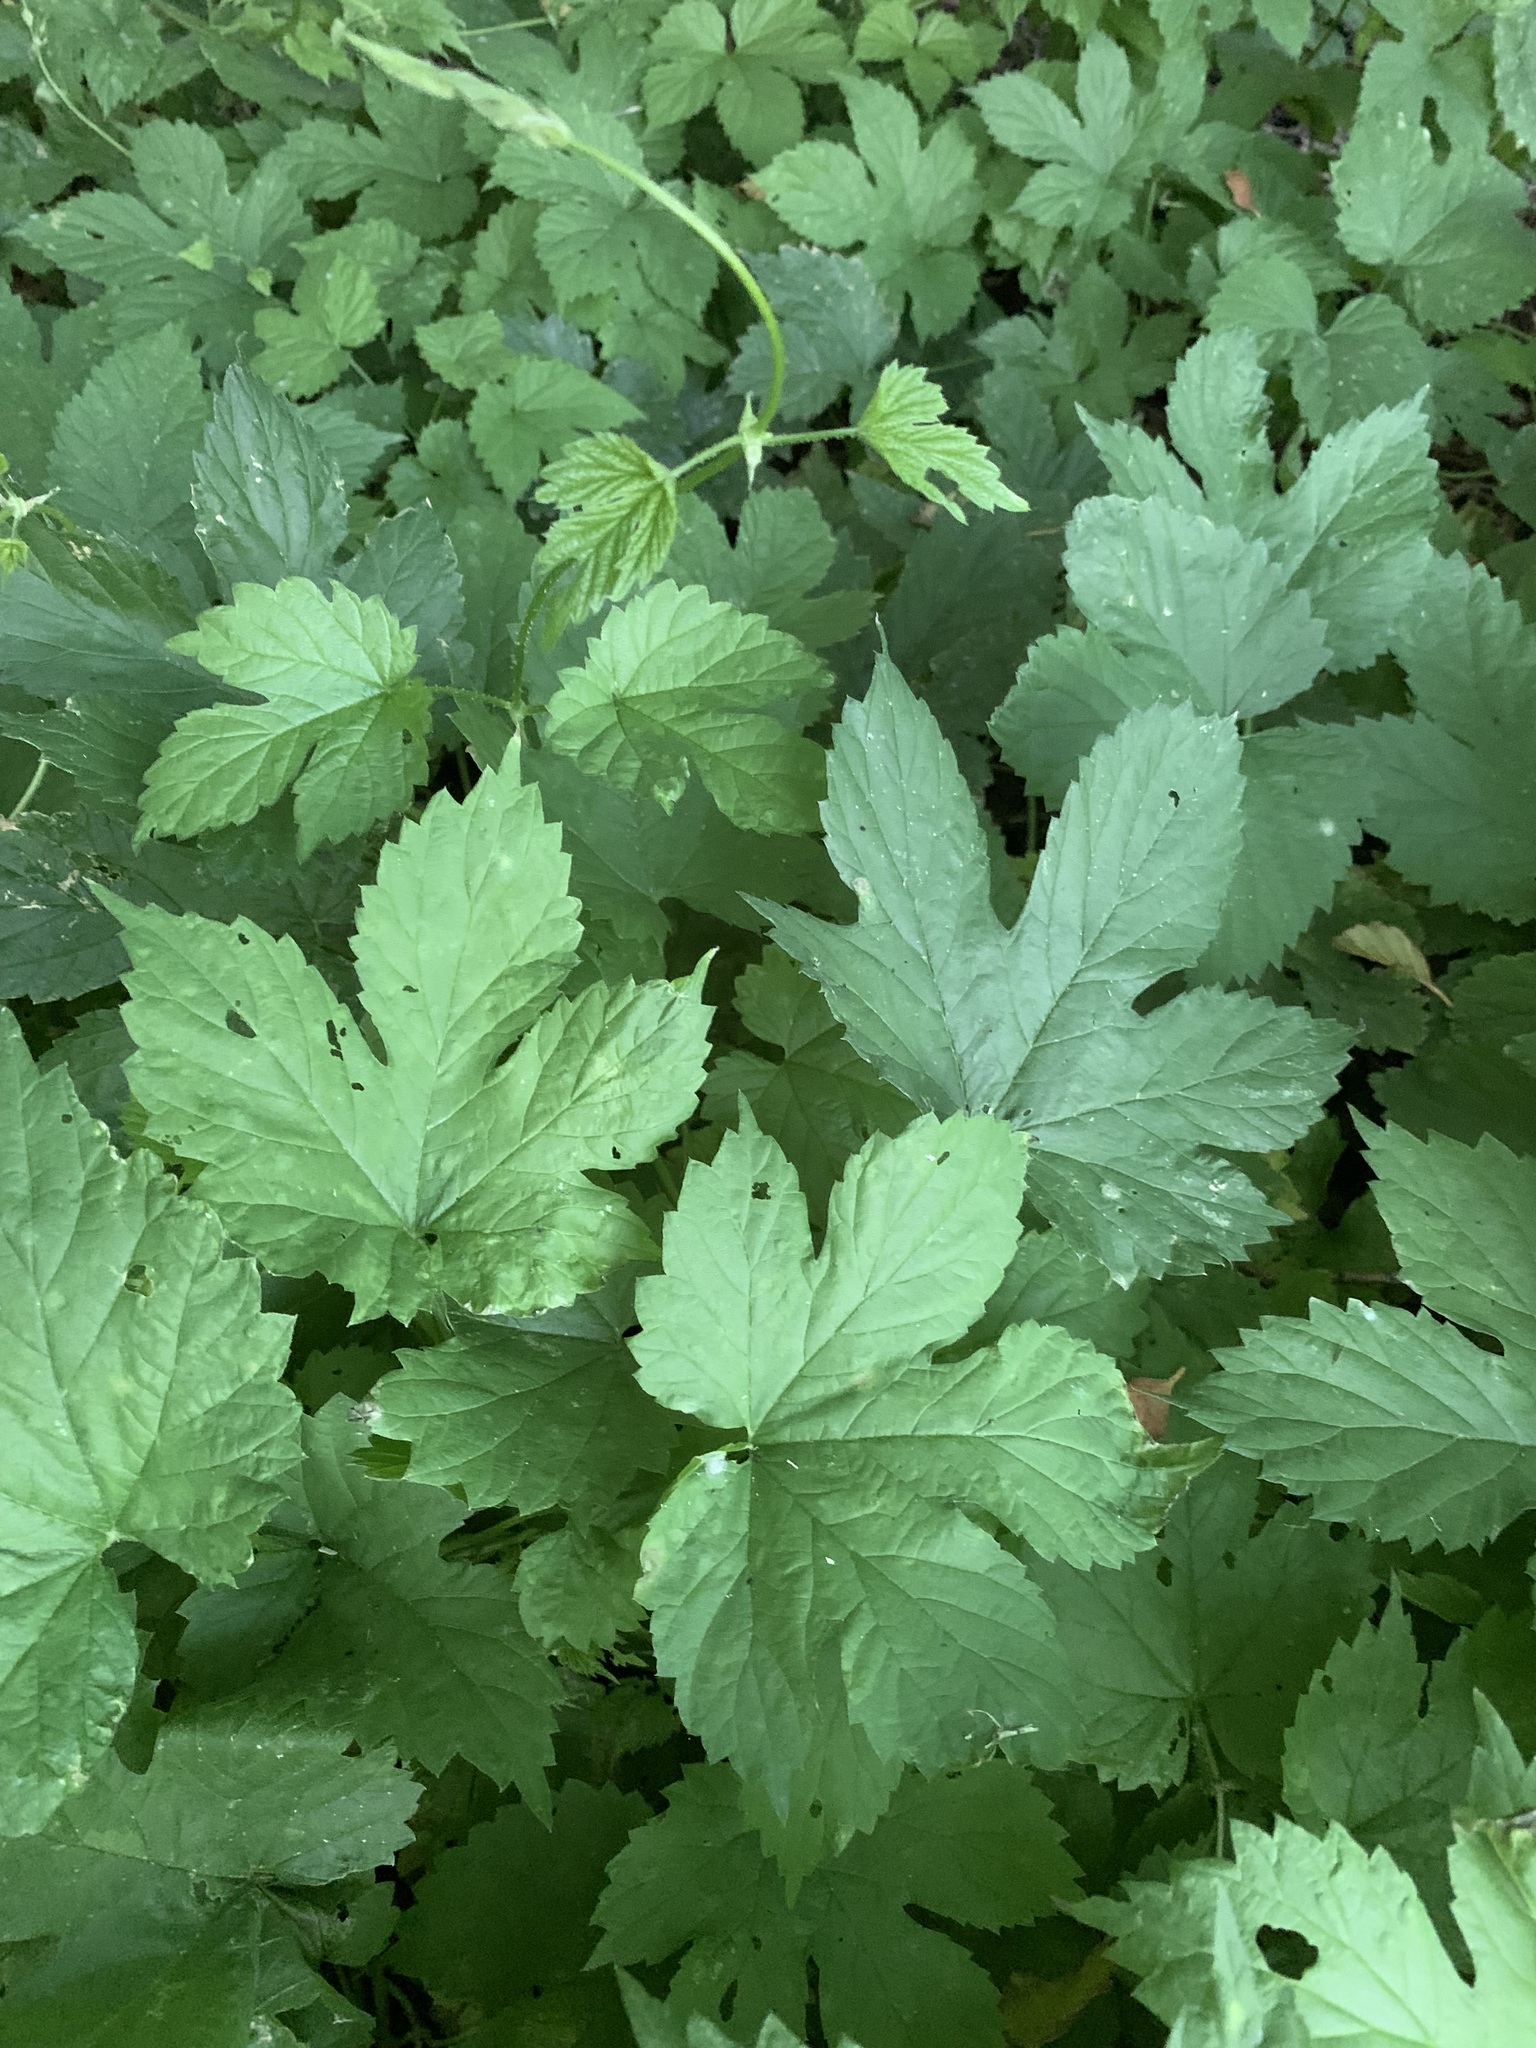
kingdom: Plantae
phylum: Tracheophyta
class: Magnoliopsida
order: Rosales
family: Cannabaceae
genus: Humulus
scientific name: Humulus lupulus
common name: Hop
